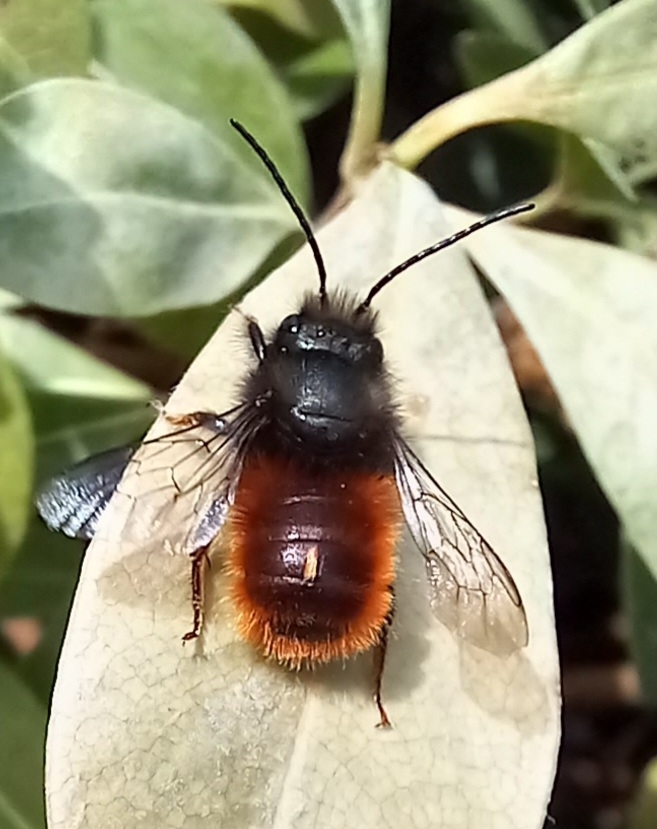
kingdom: Animalia
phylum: Arthropoda
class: Insecta
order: Hymenoptera
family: Megachilidae
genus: Osmia
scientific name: Osmia cornuta
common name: Mason bee
